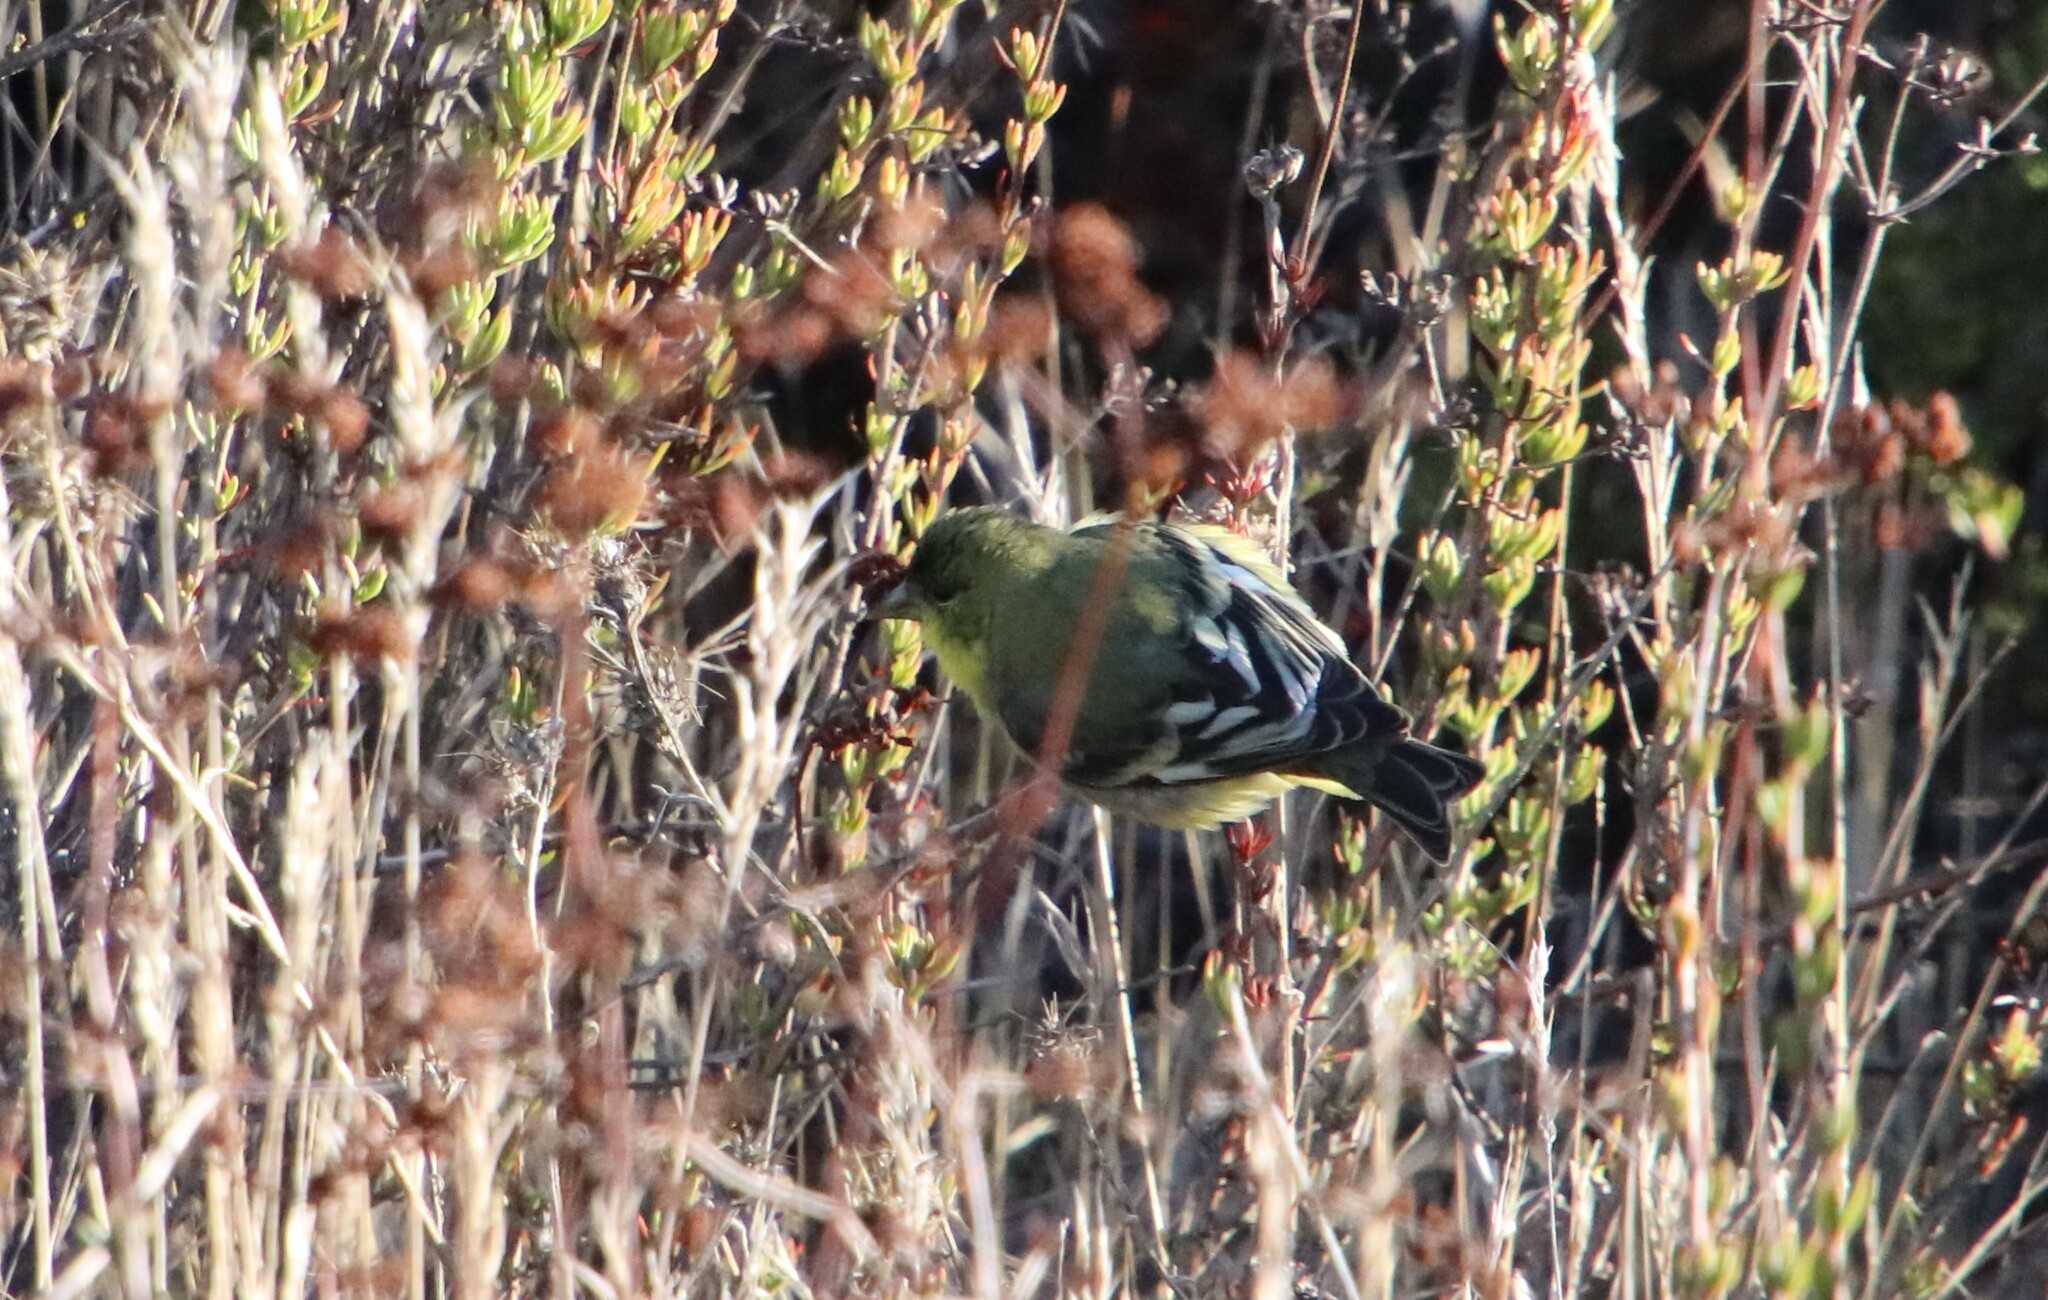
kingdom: Animalia
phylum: Chordata
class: Aves
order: Passeriformes
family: Fringillidae
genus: Spinus
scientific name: Spinus psaltria
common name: Lesser goldfinch
